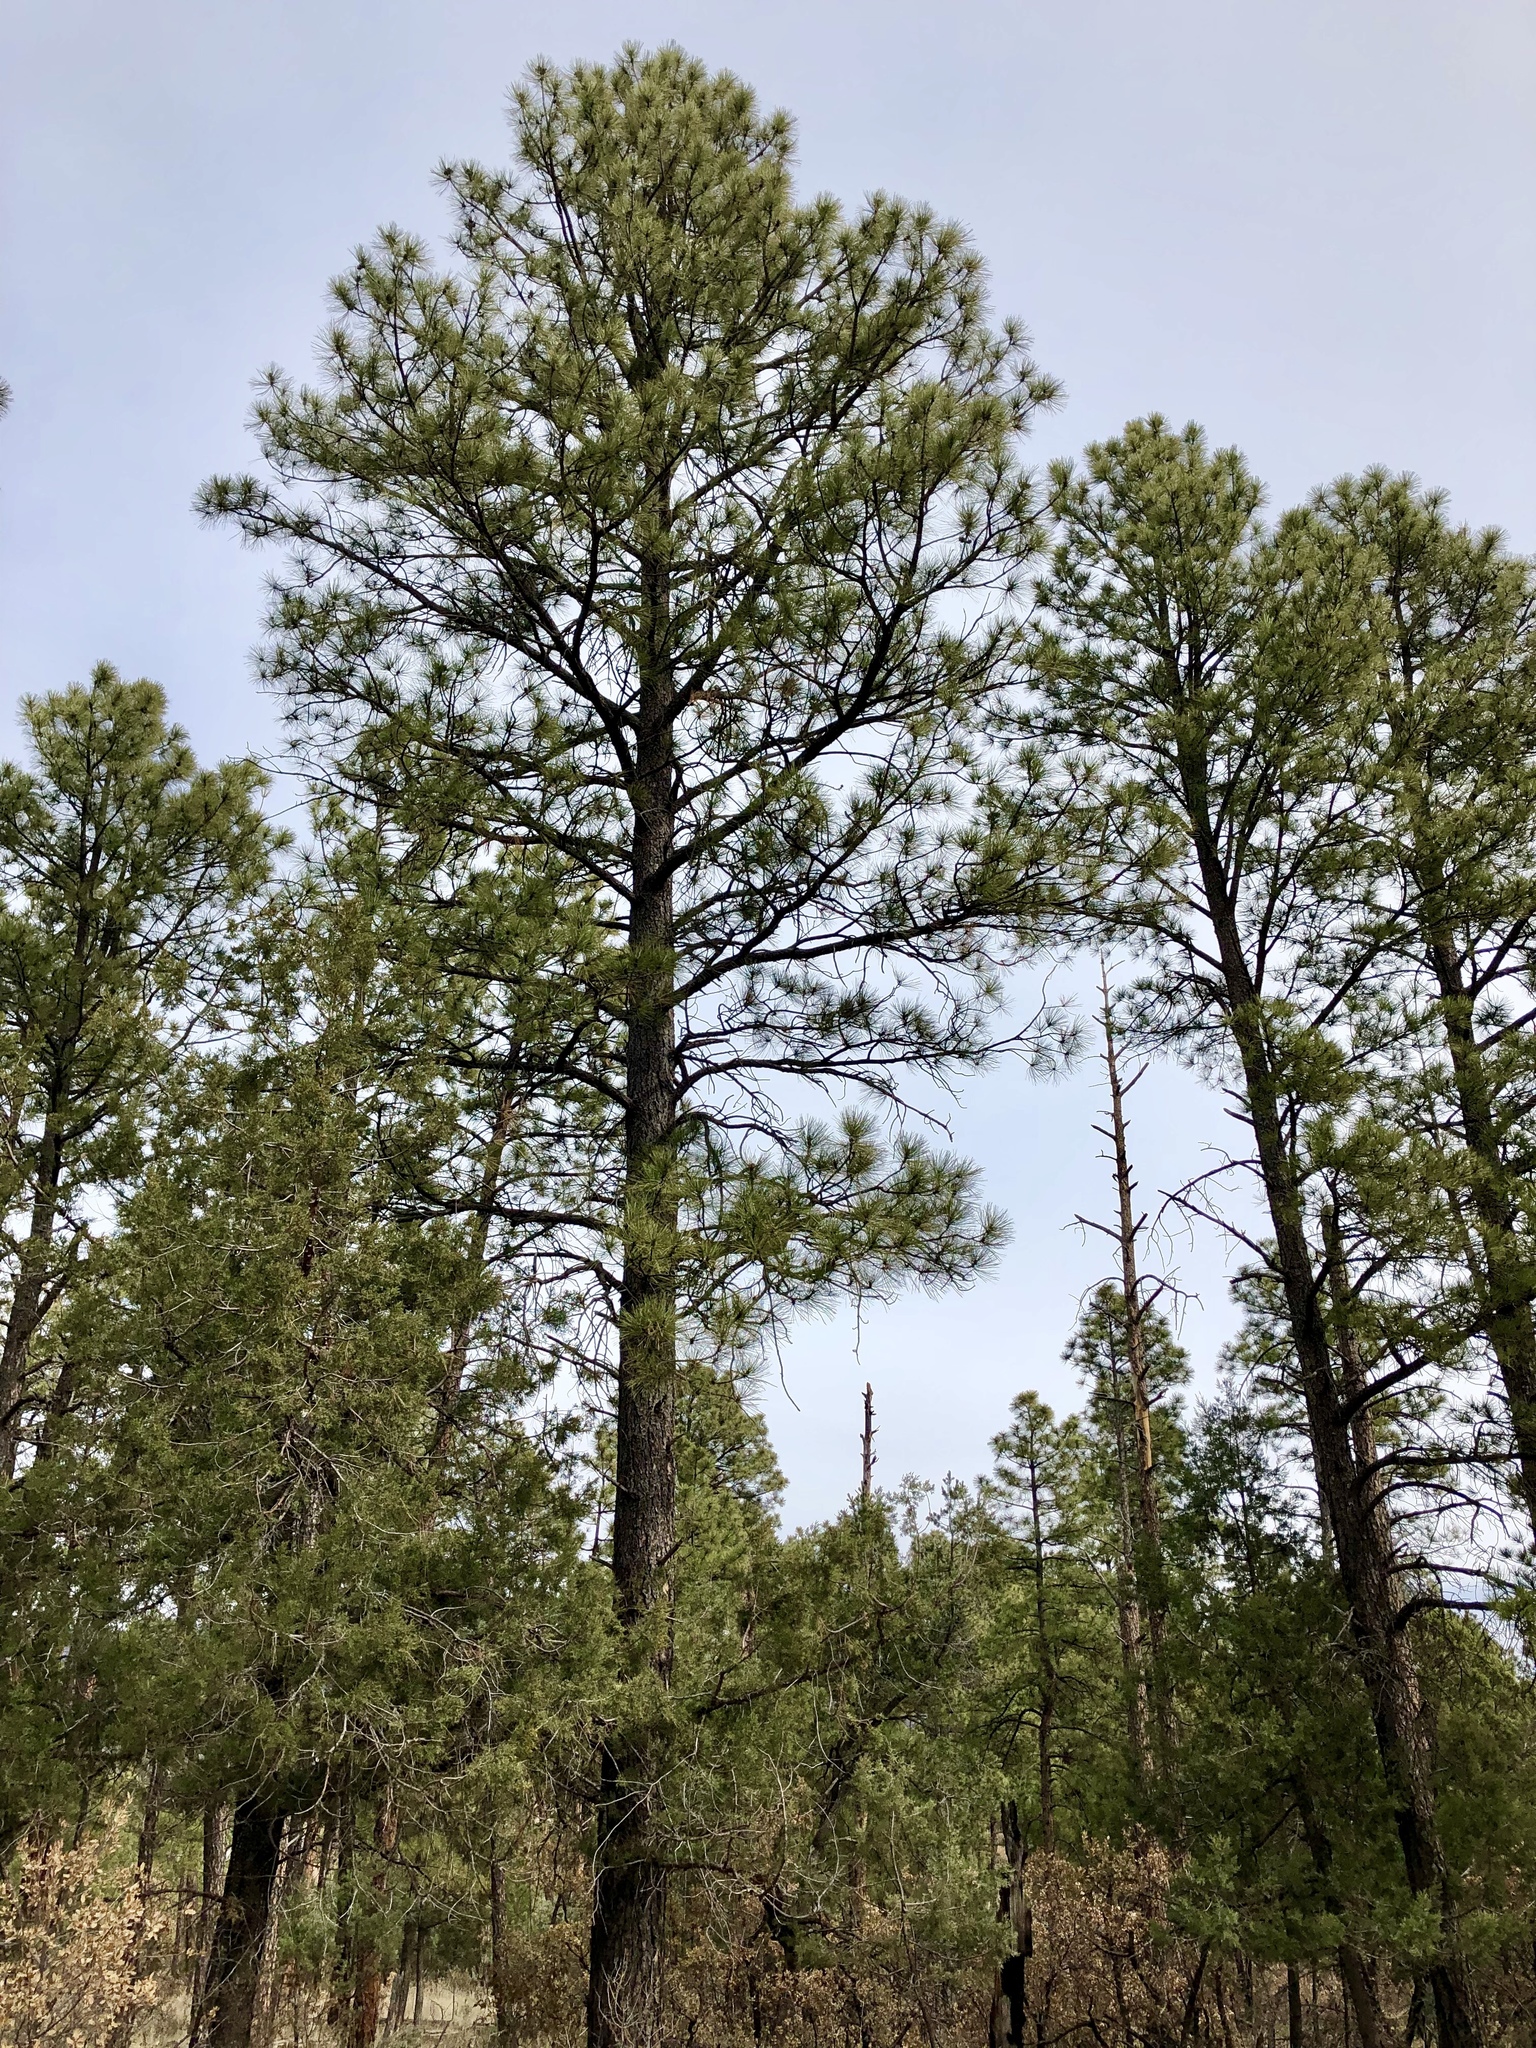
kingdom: Plantae
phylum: Tracheophyta
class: Pinopsida
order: Pinales
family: Pinaceae
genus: Pinus
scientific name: Pinus ponderosa
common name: Western yellow-pine
